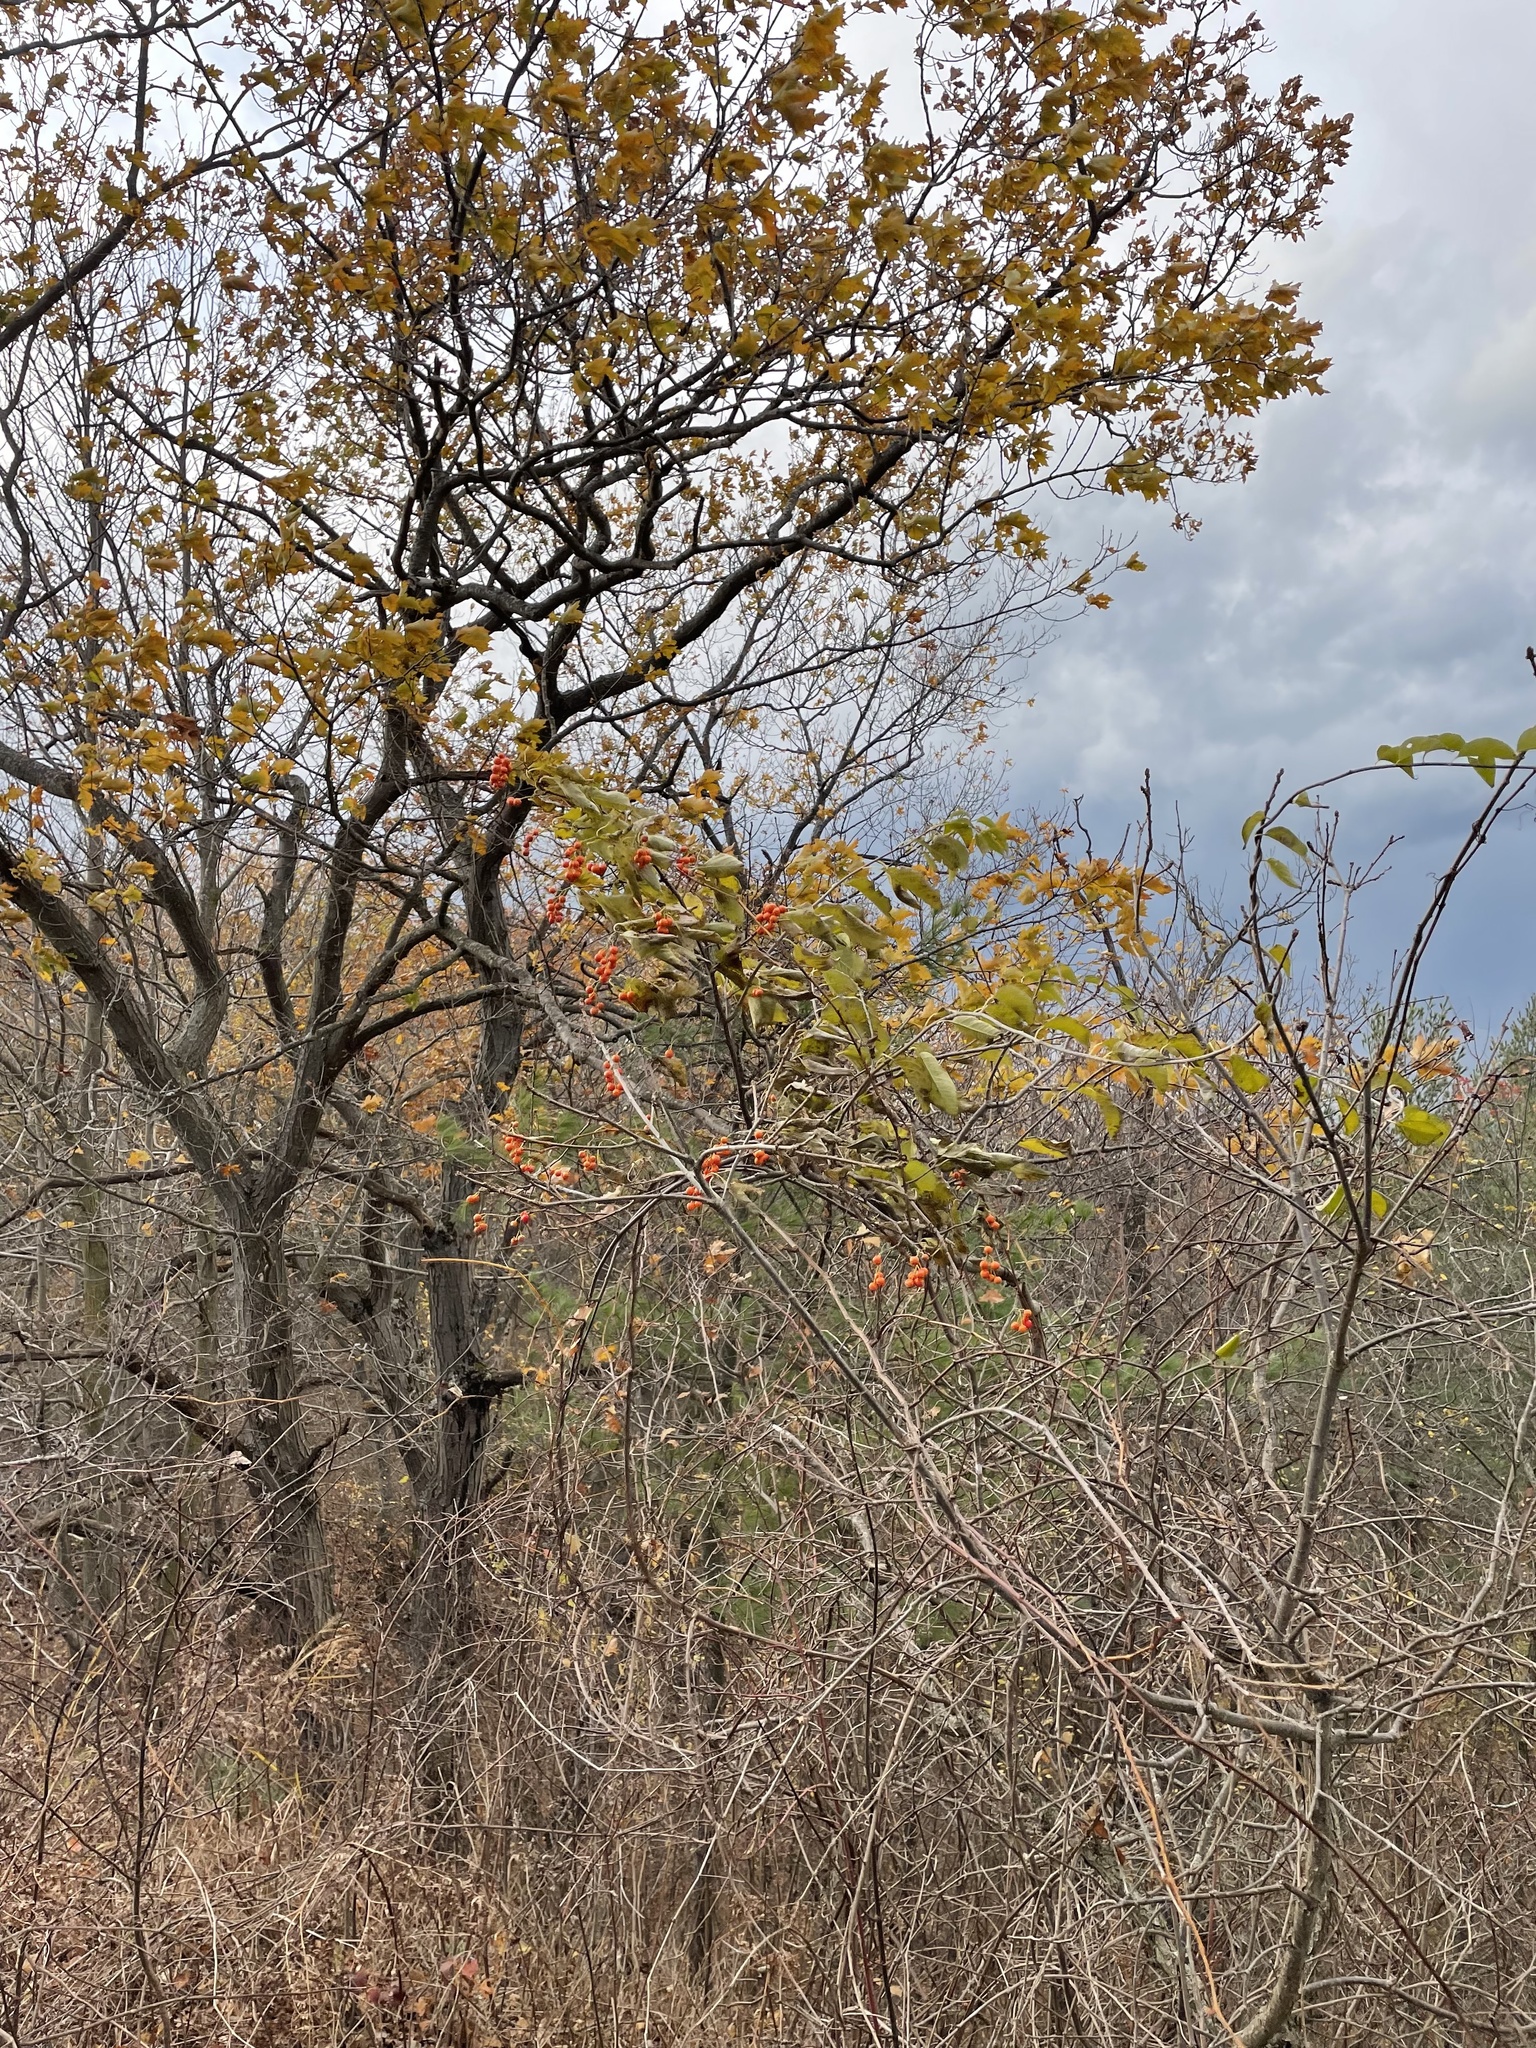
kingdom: Plantae
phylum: Tracheophyta
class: Magnoliopsida
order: Celastrales
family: Celastraceae
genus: Celastrus
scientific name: Celastrus scandens
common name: American bittersweet
